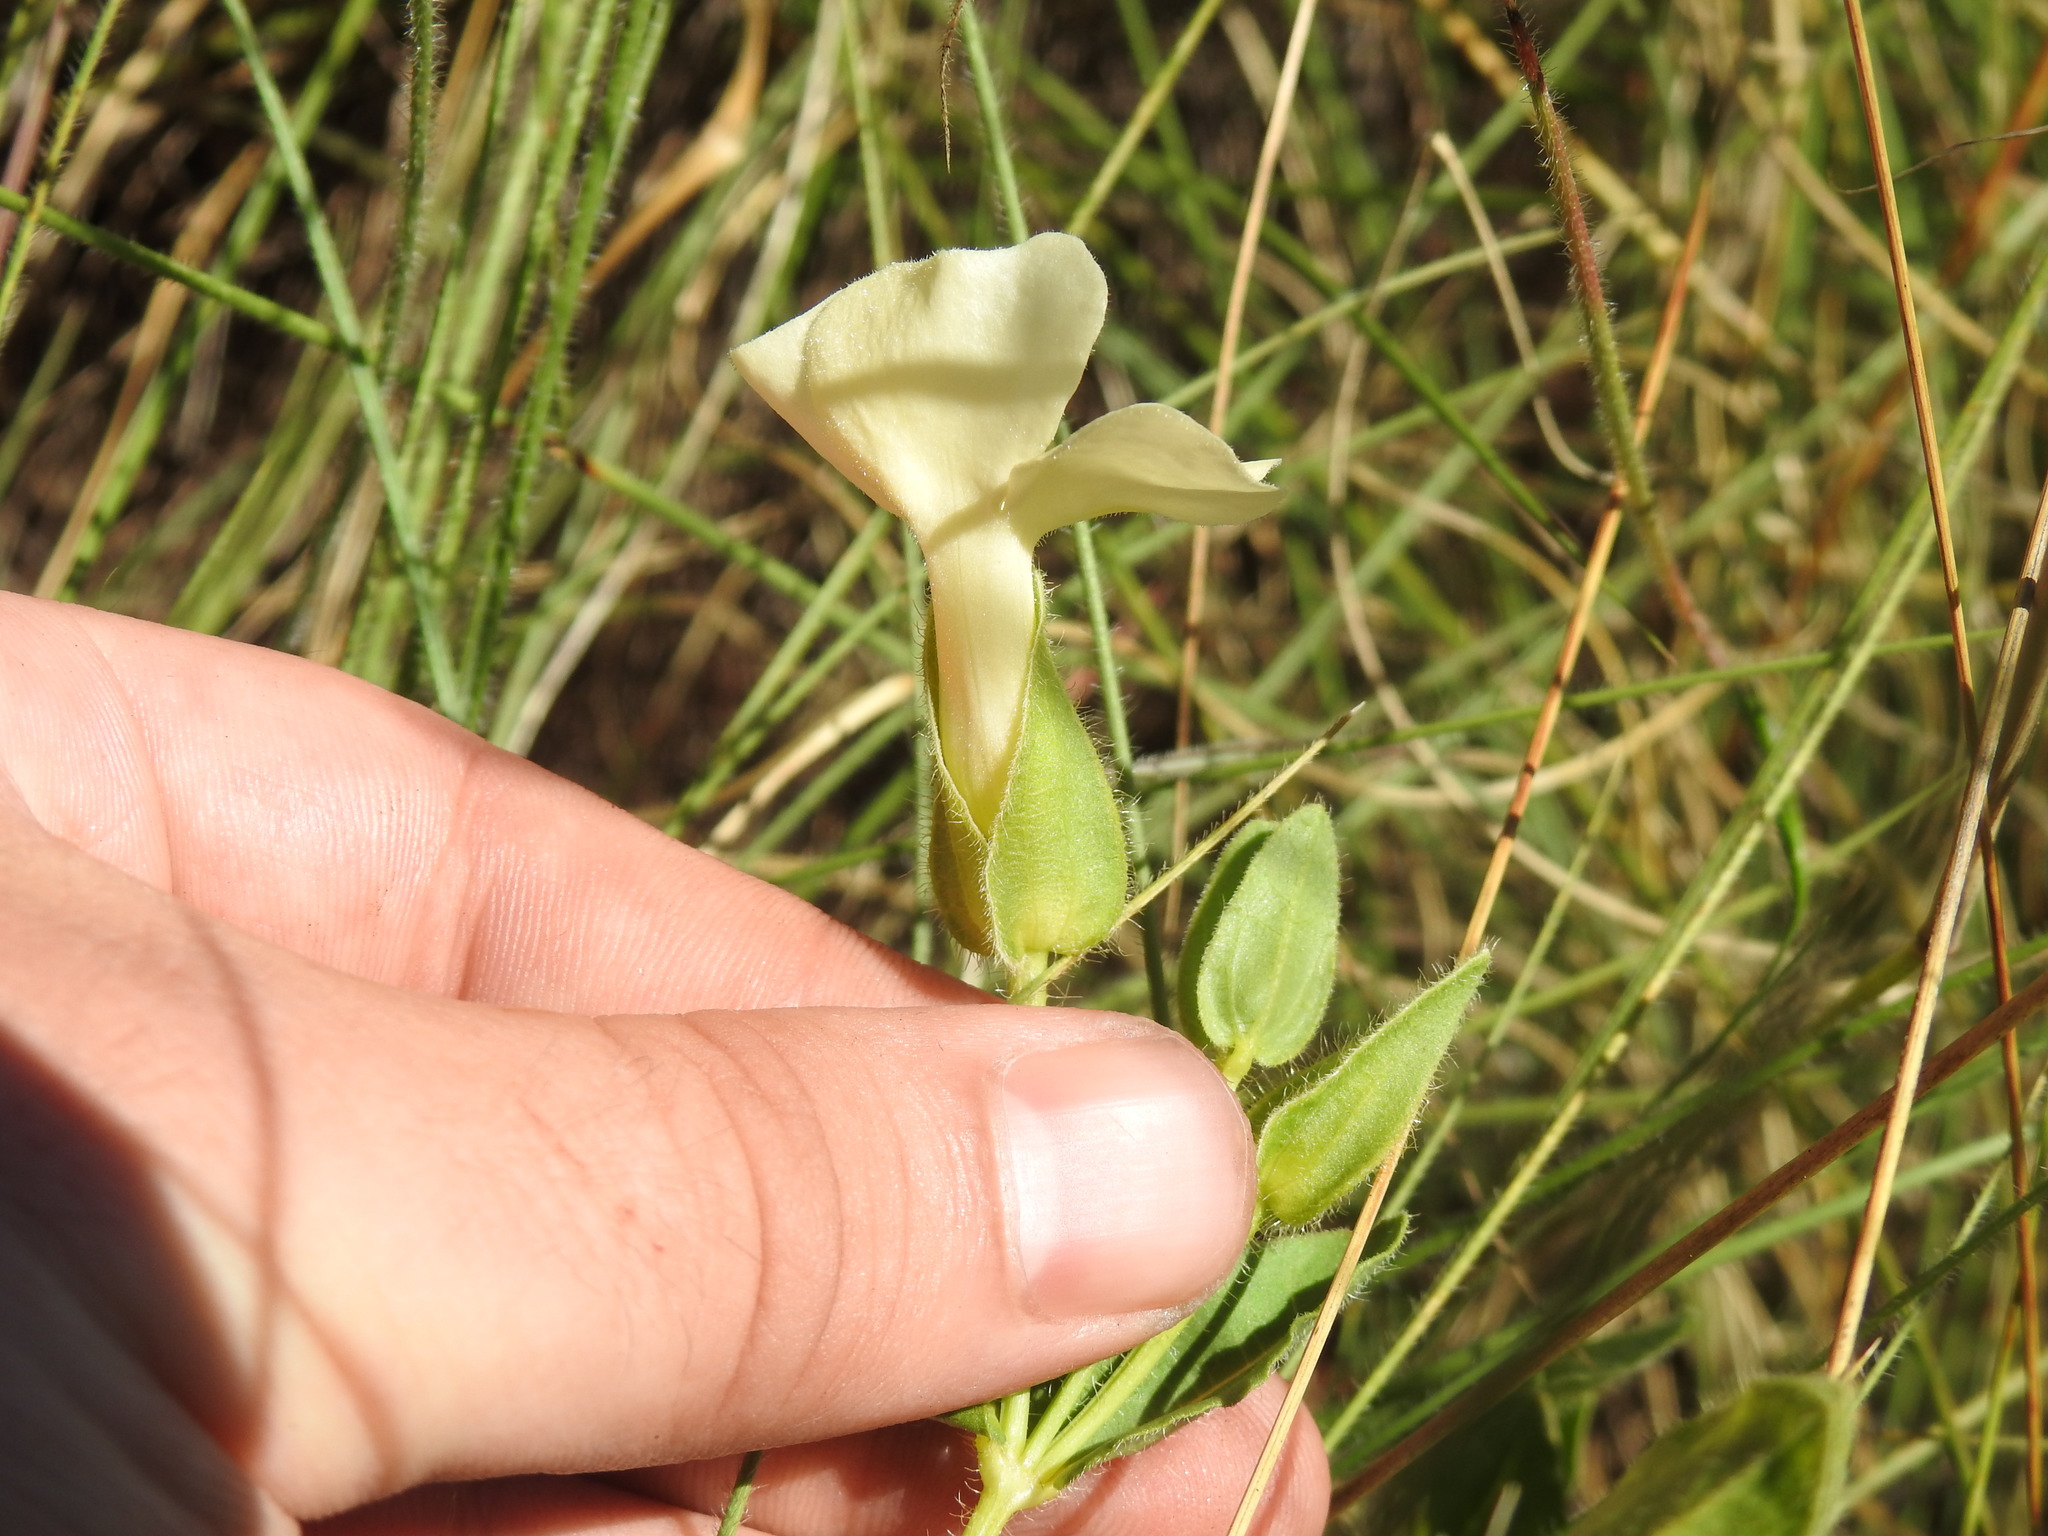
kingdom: Plantae
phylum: Tracheophyta
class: Magnoliopsida
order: Lamiales
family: Acanthaceae
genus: Thunbergia
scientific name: Thunbergia atriplicifolia
